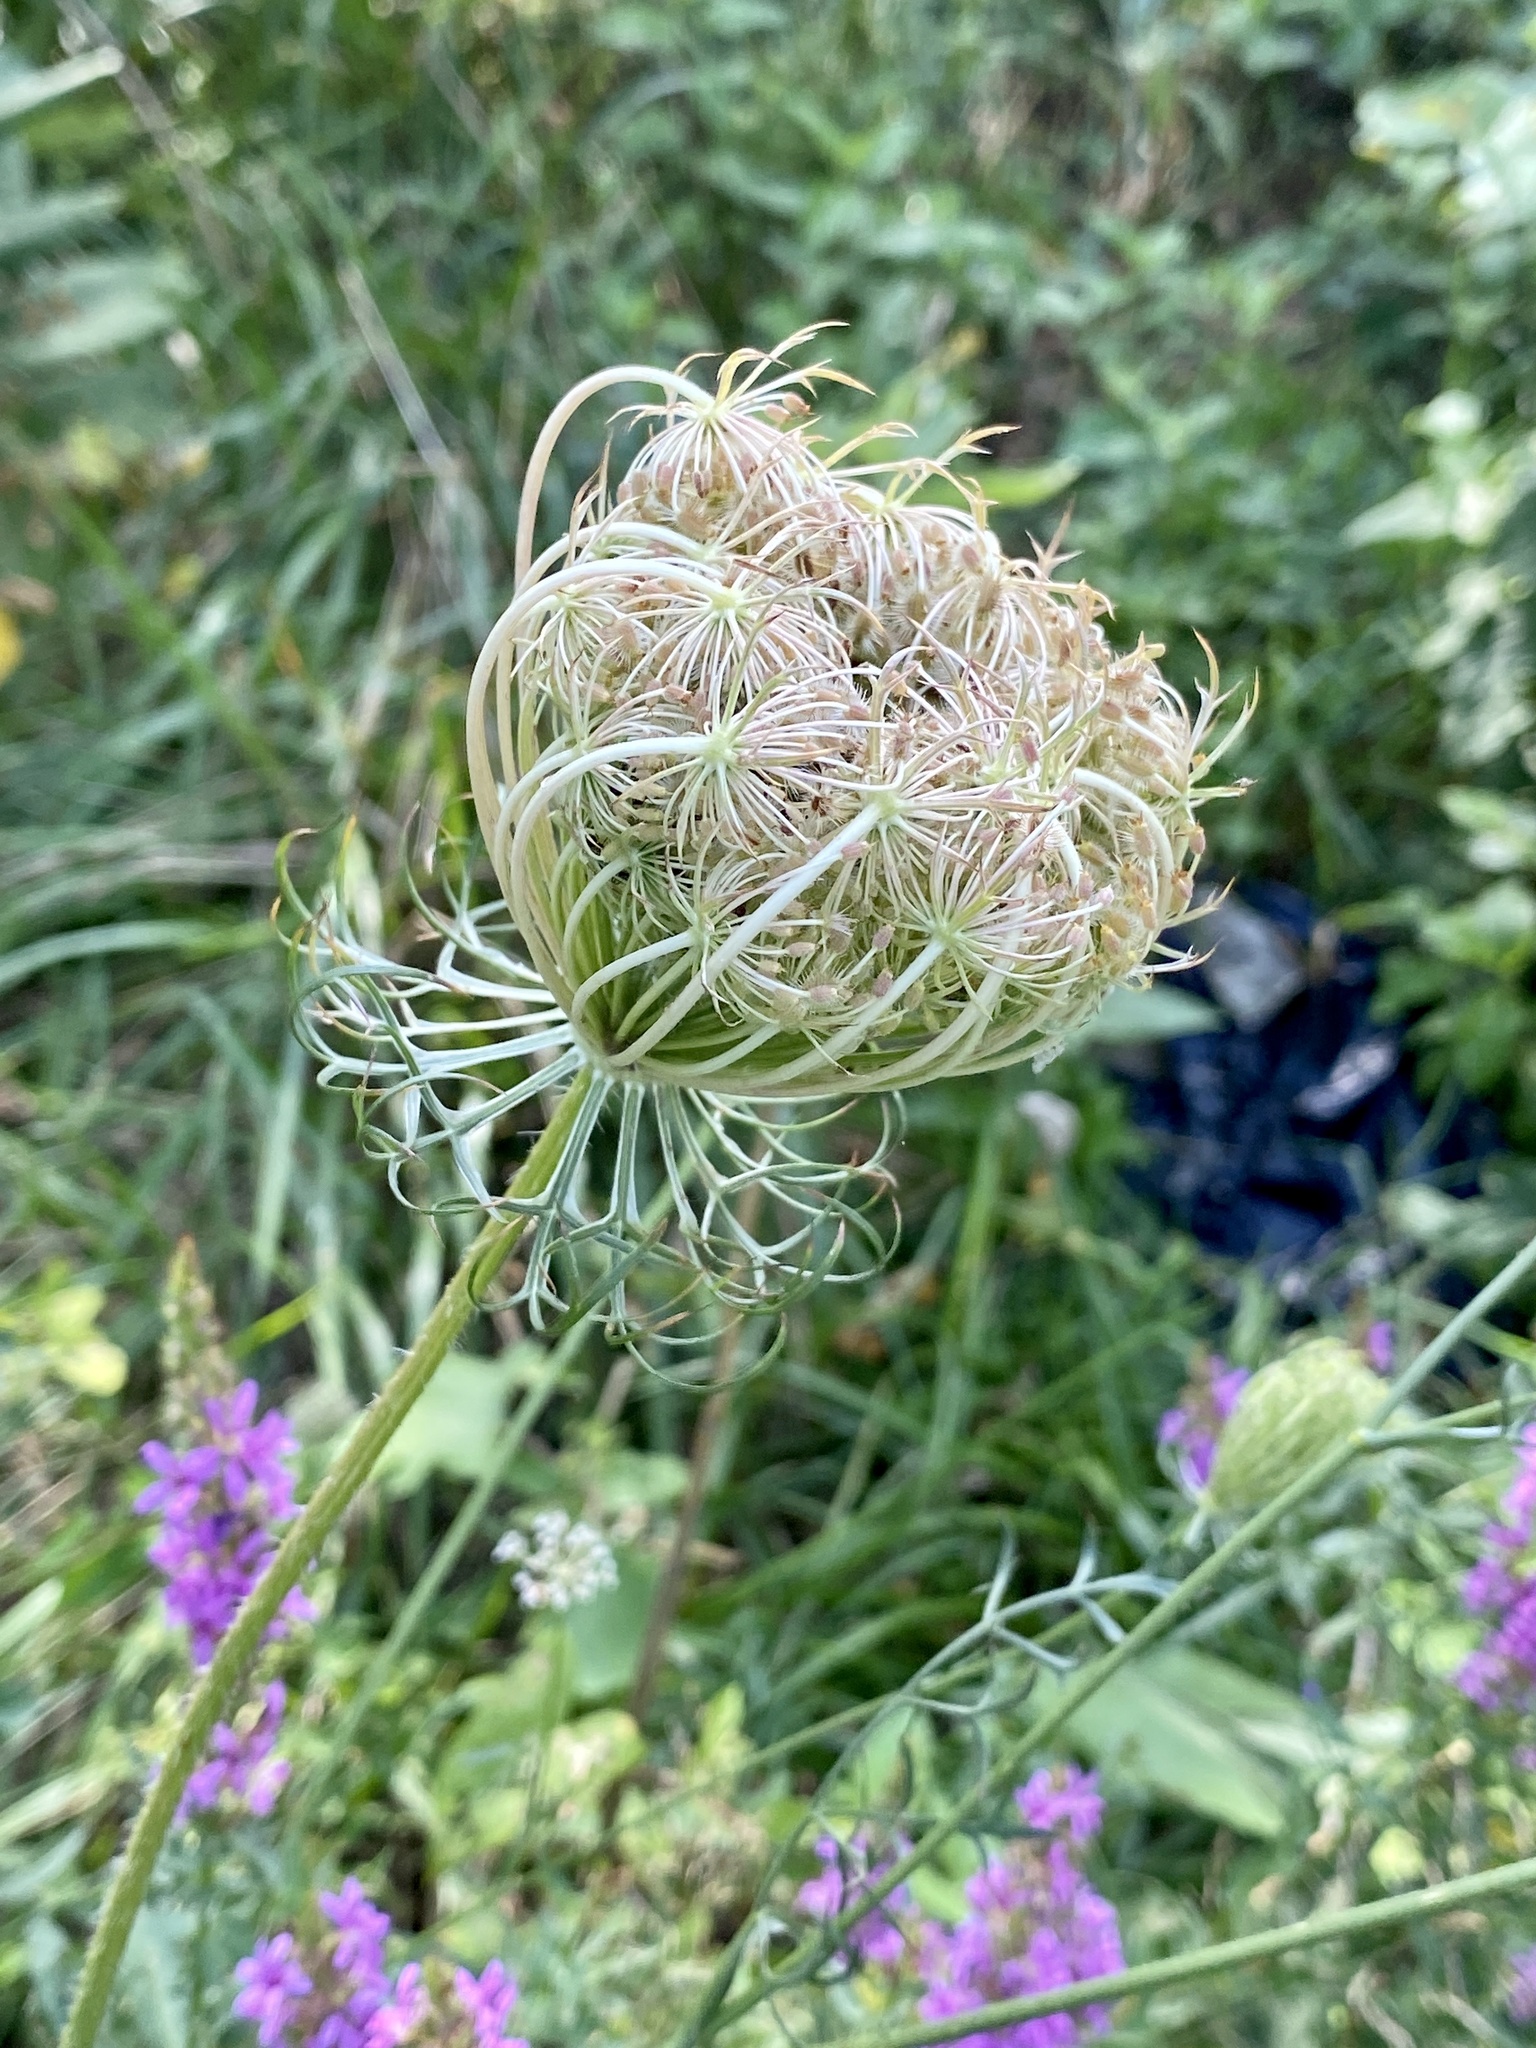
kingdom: Plantae
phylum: Tracheophyta
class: Magnoliopsida
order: Apiales
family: Apiaceae
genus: Daucus
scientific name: Daucus carota
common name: Wild carrot
